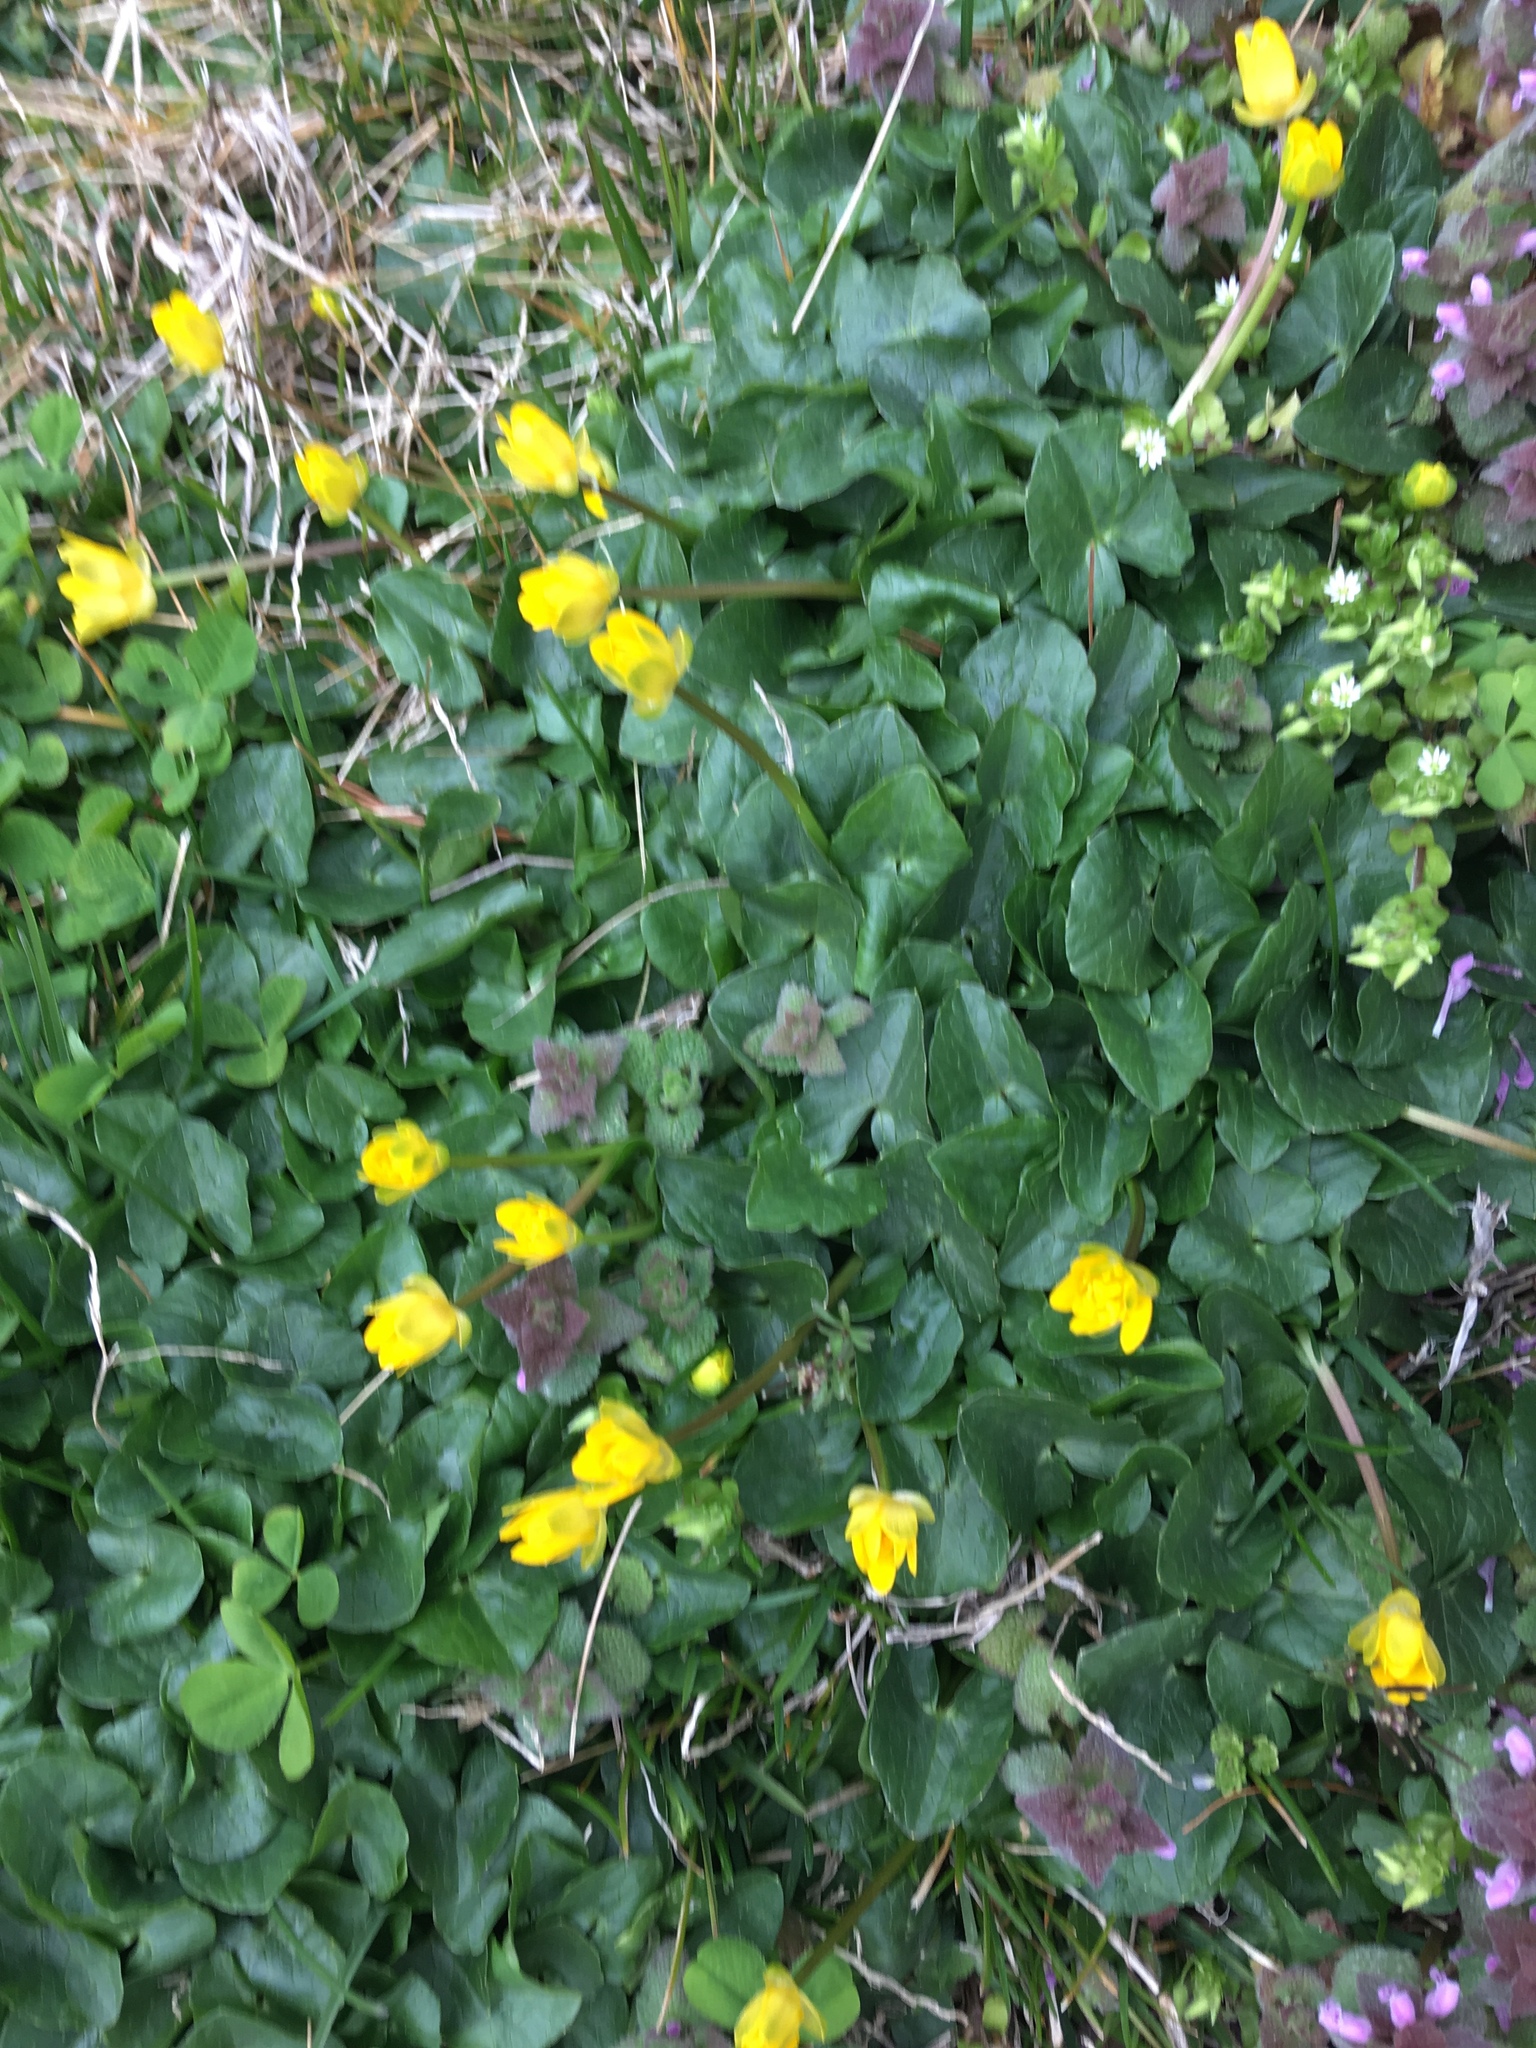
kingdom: Plantae
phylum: Tracheophyta
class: Magnoliopsida
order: Ranunculales
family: Ranunculaceae
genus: Ficaria
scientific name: Ficaria verna
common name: Lesser celandine
